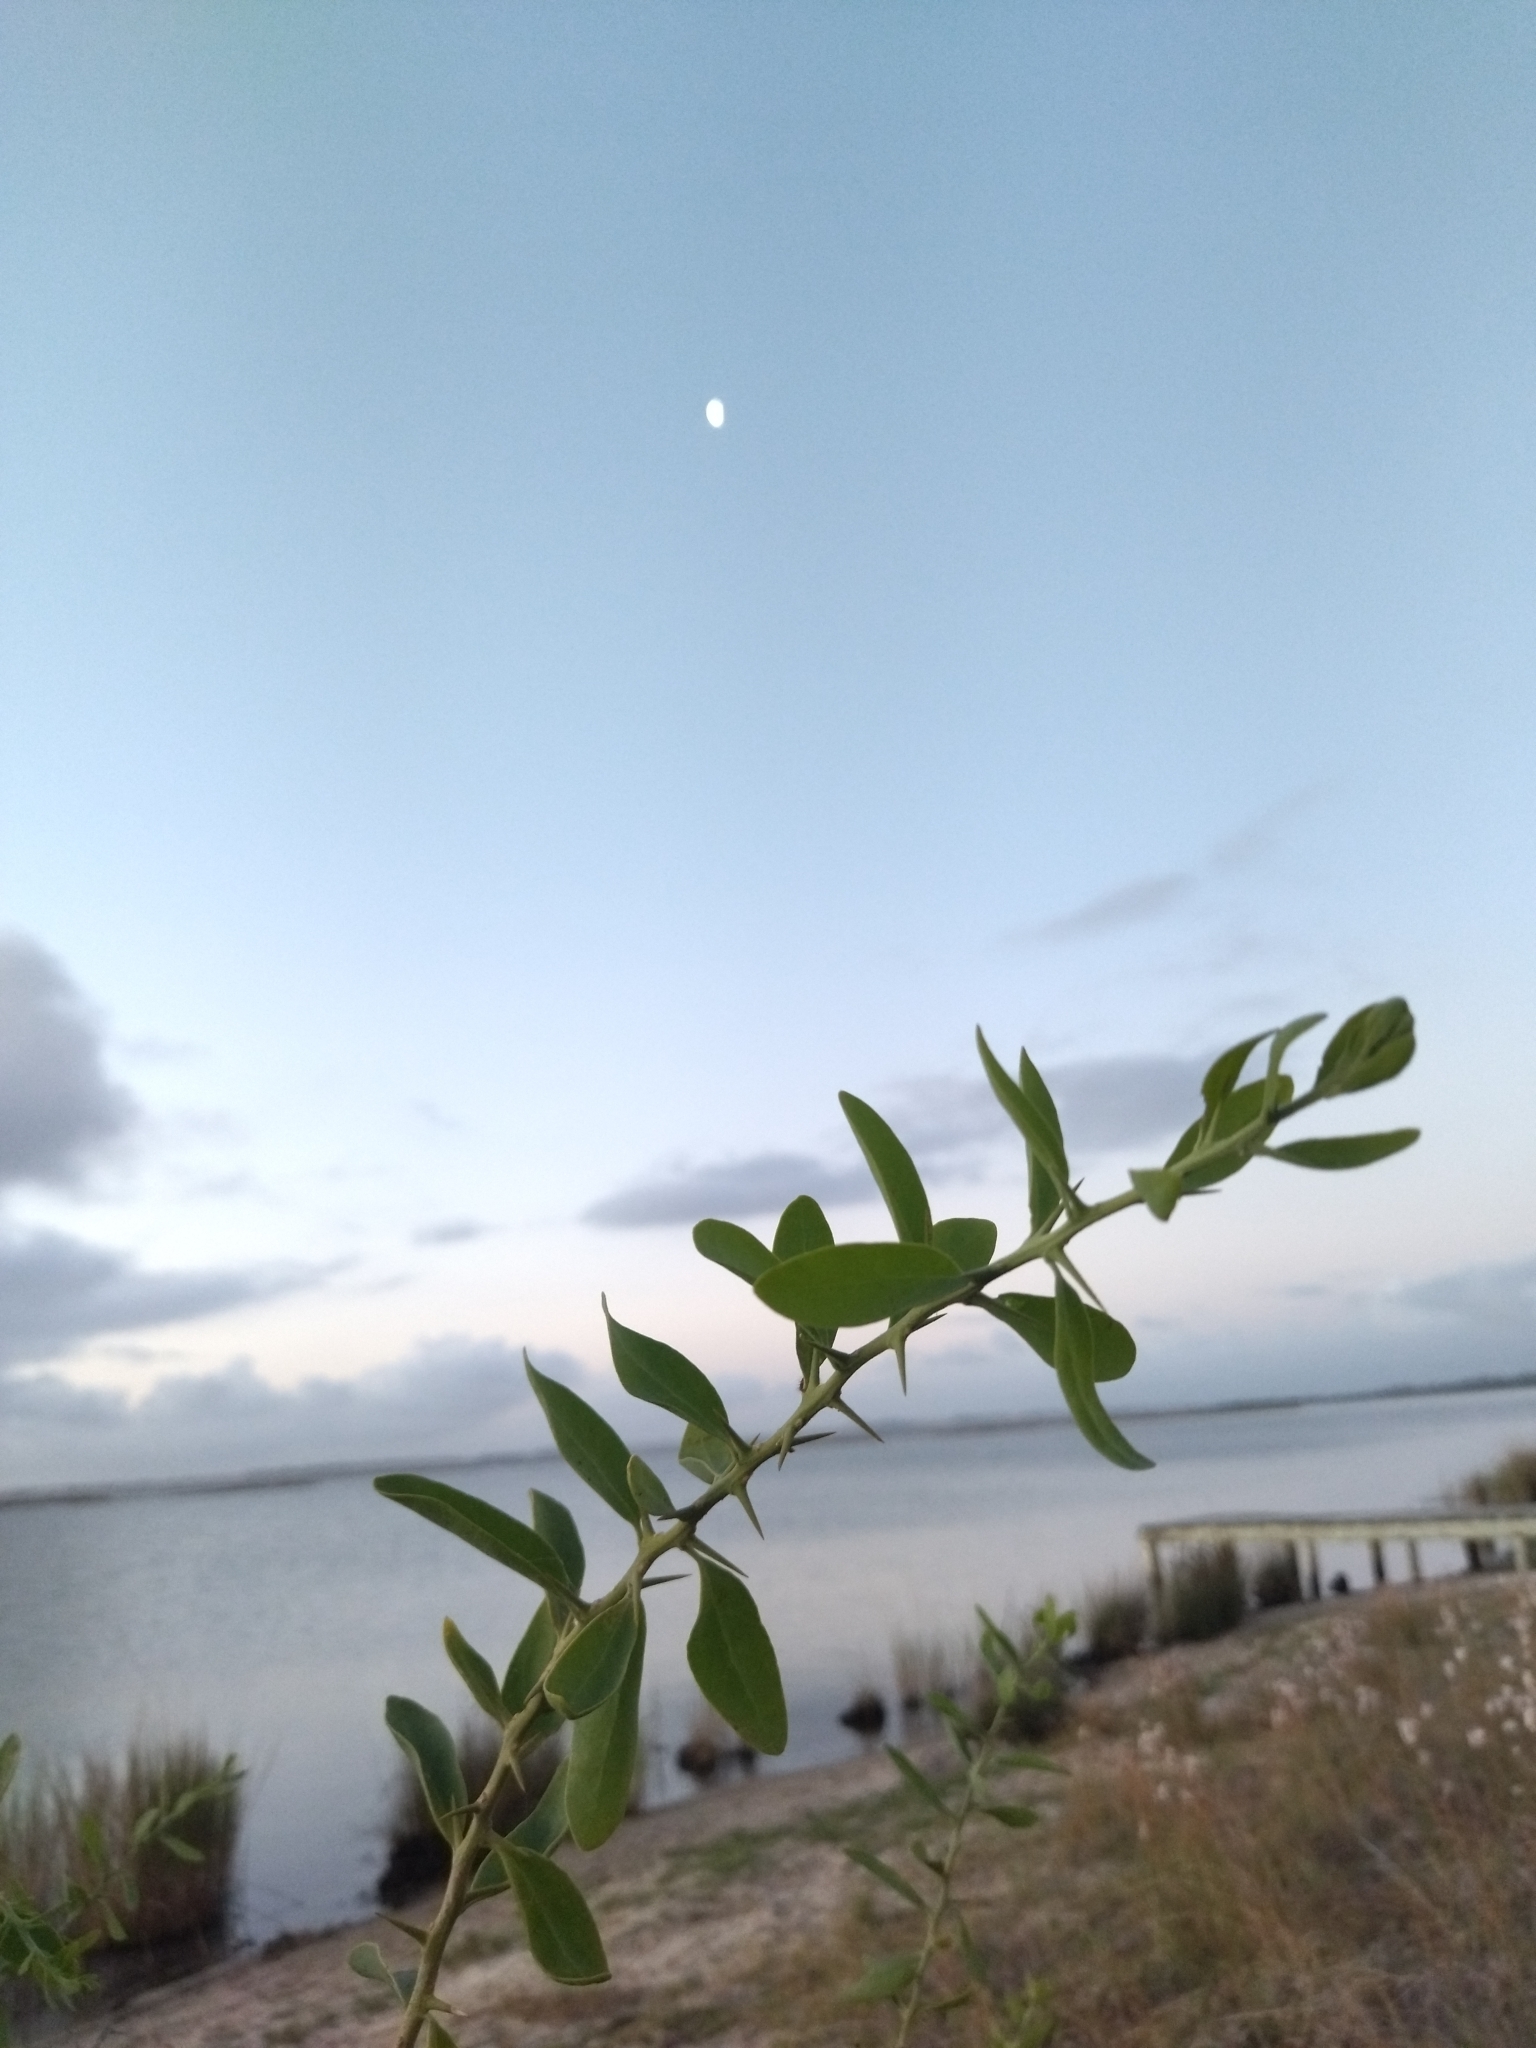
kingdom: Plantae
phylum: Tracheophyta
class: Magnoliopsida
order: Santalales
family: Cervantesiaceae
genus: Acanthosyris
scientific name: Acanthosyris spinescens
